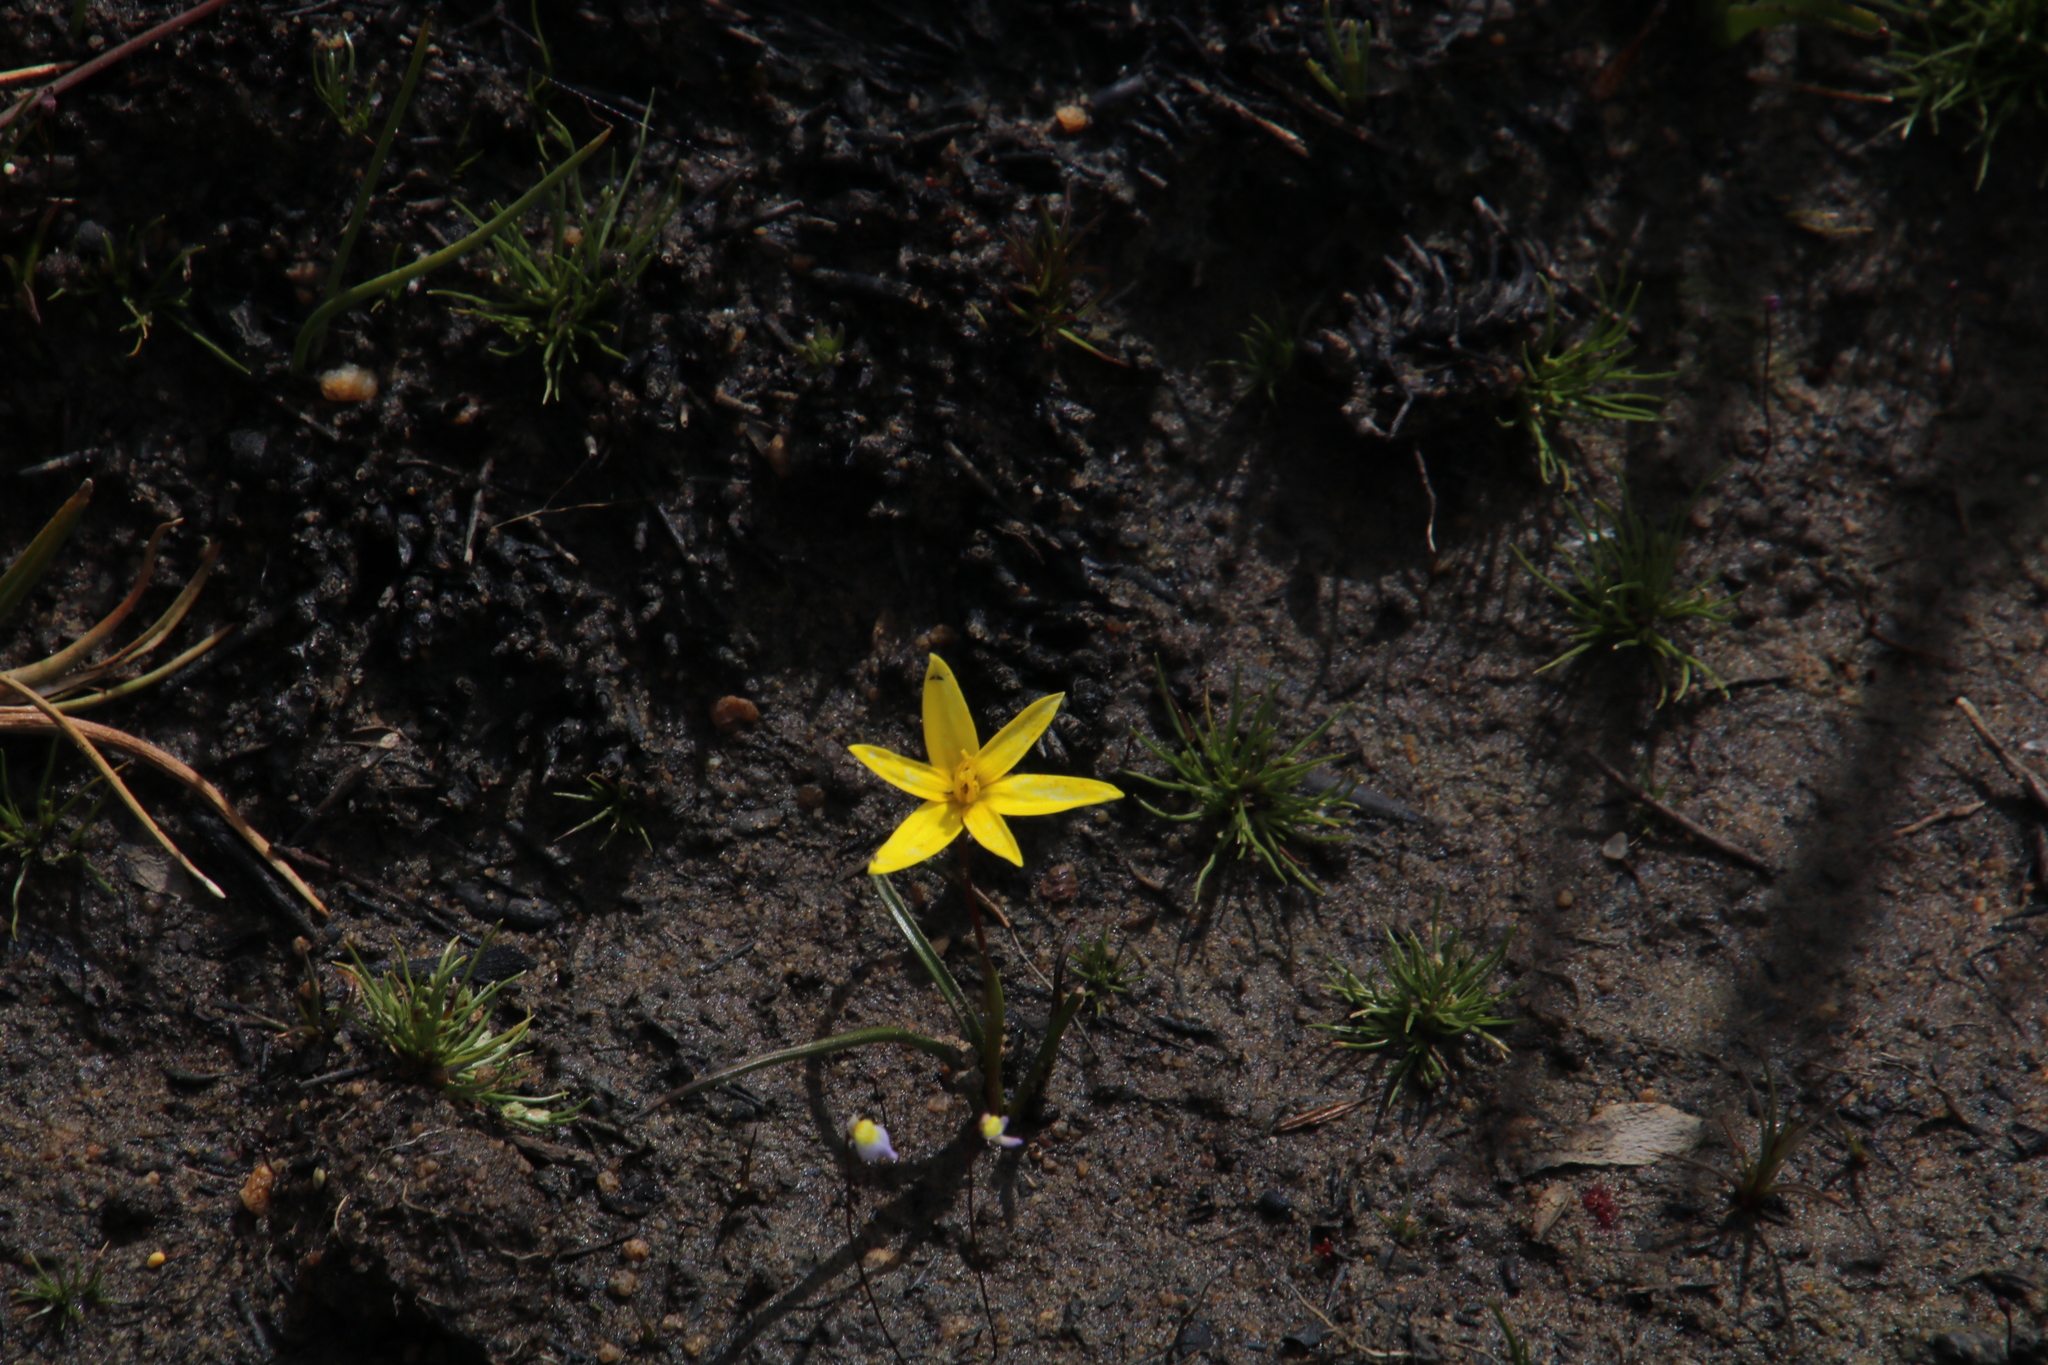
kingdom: Plantae
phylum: Tracheophyta
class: Liliopsida
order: Asparagales
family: Hypoxidaceae
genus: Pauridia
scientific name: Pauridia capensis
